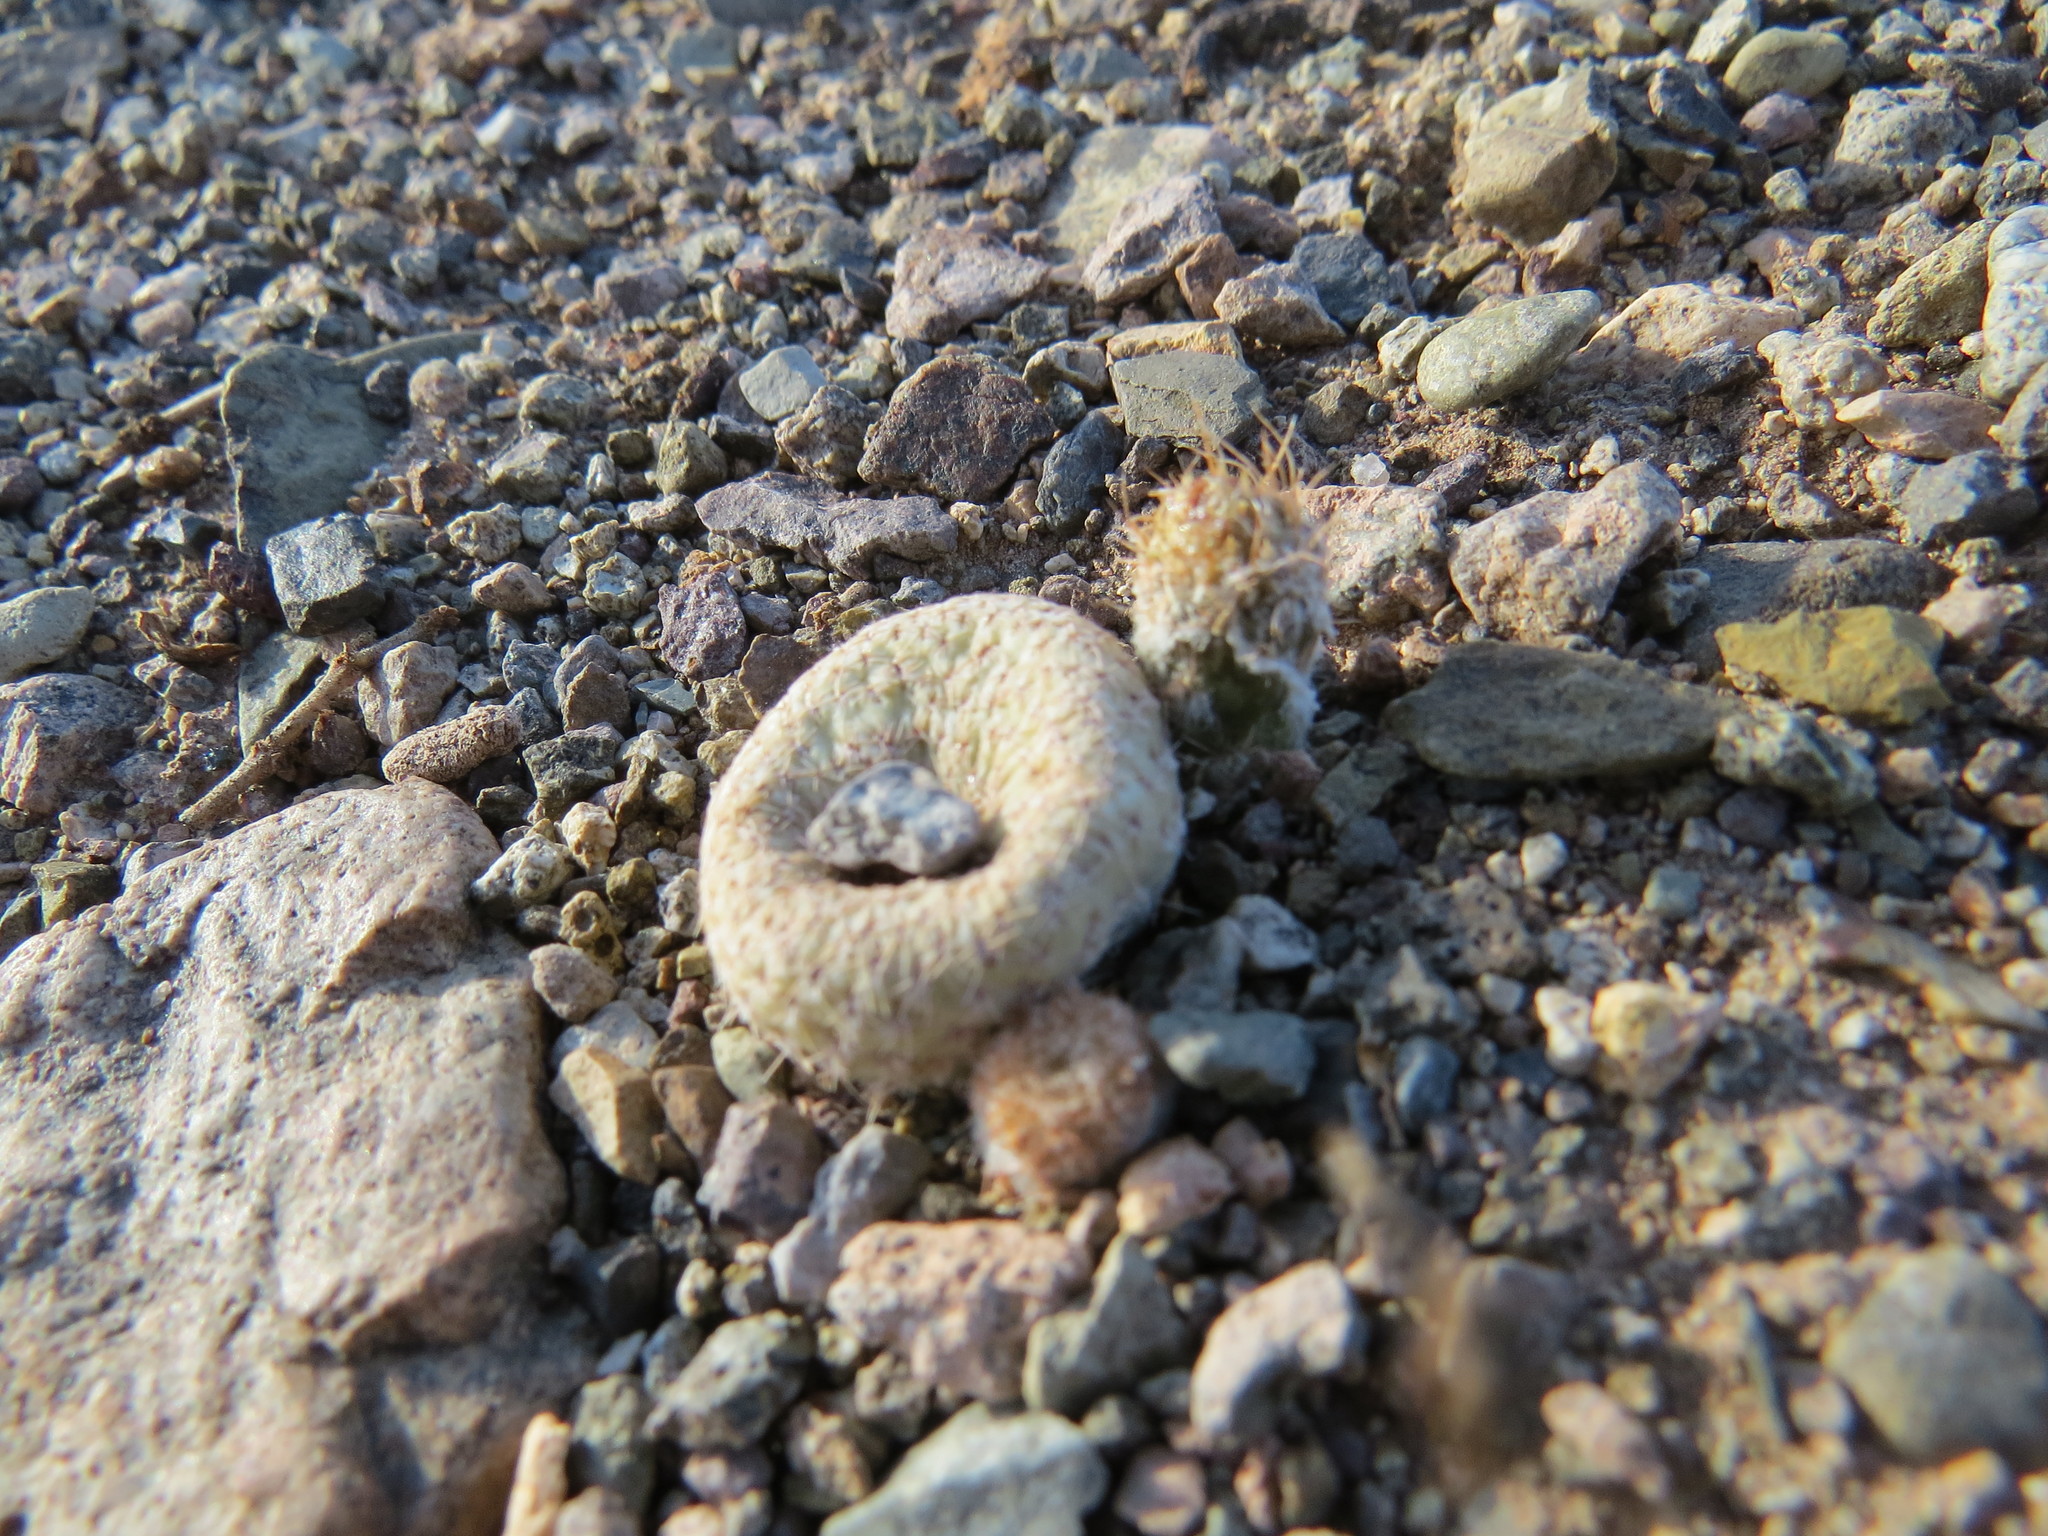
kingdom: Plantae
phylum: Tracheophyta
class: Magnoliopsida
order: Caryophyllales
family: Cactaceae
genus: Puna
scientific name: Puna clavarioides
